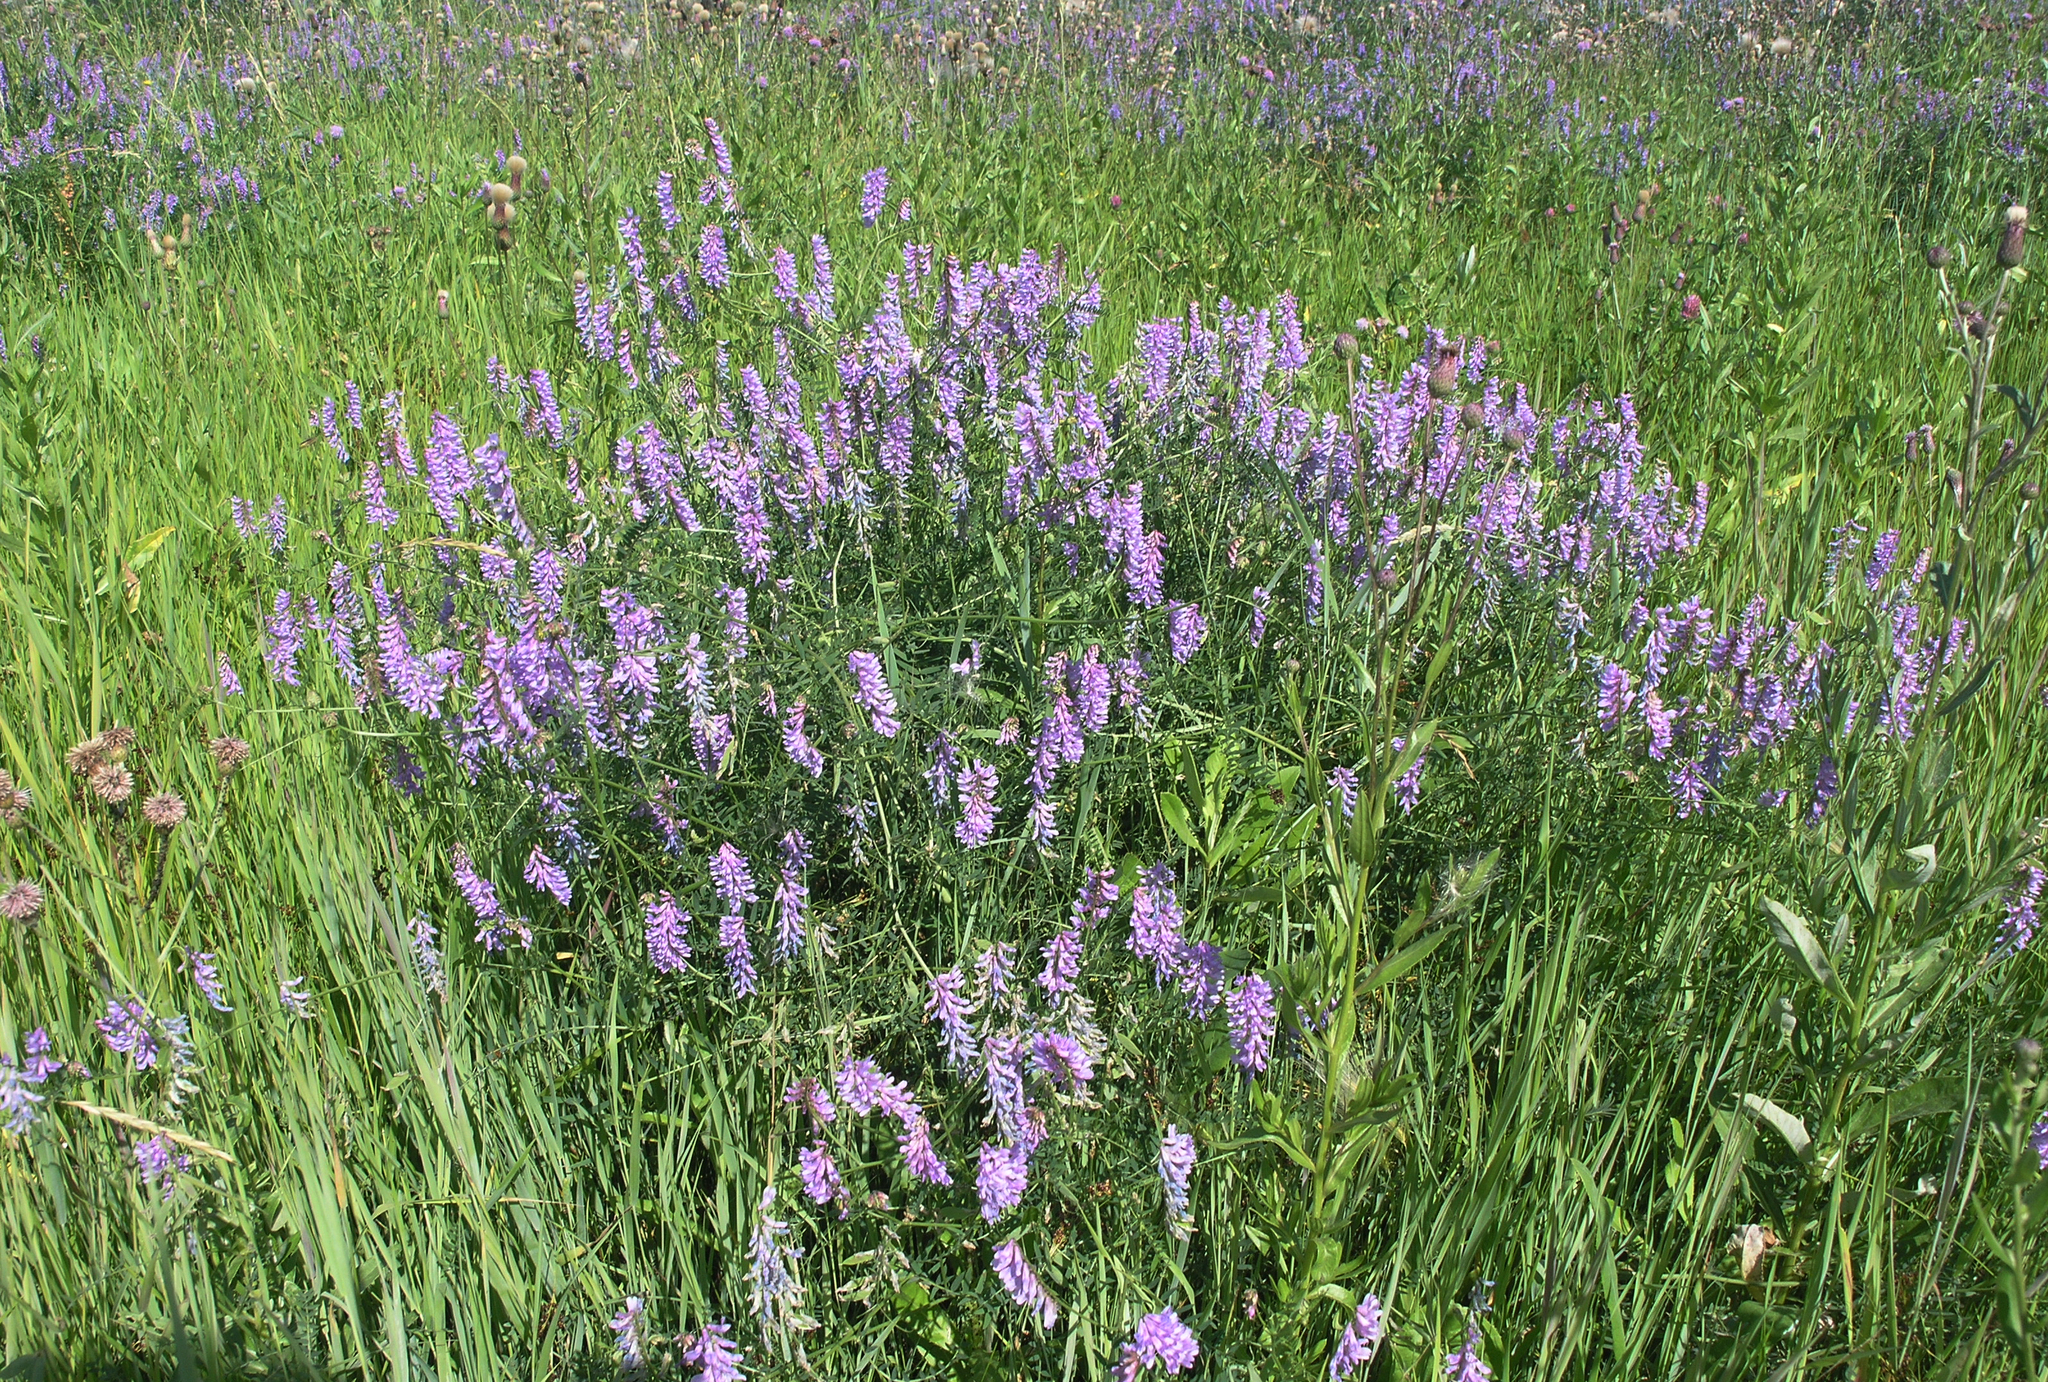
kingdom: Plantae
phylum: Tracheophyta
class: Magnoliopsida
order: Fabales
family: Fabaceae
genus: Vicia
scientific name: Vicia cracca
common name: Bird vetch
